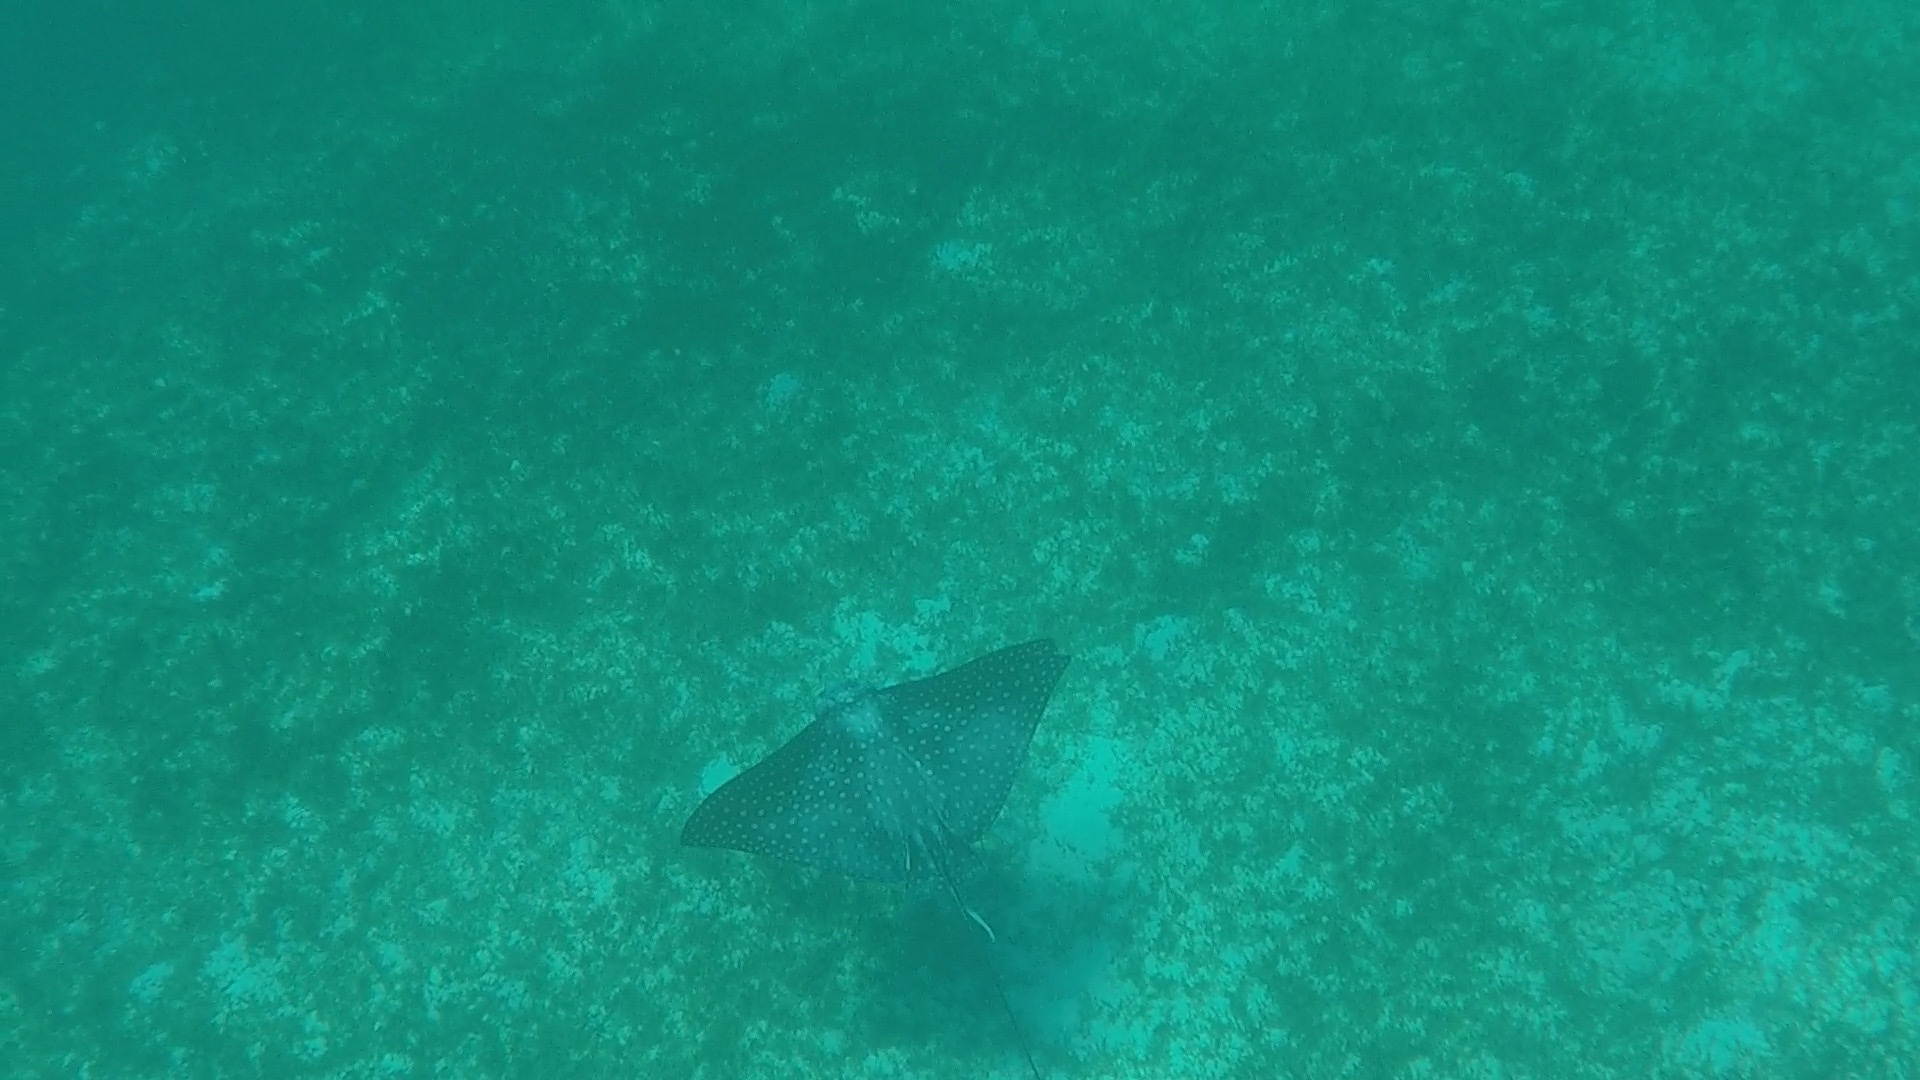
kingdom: Animalia
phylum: Chordata
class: Elasmobranchii
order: Myliobatiformes
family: Myliobatidae
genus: Aetobatus
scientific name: Aetobatus narinari
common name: Spotted eagle ray
